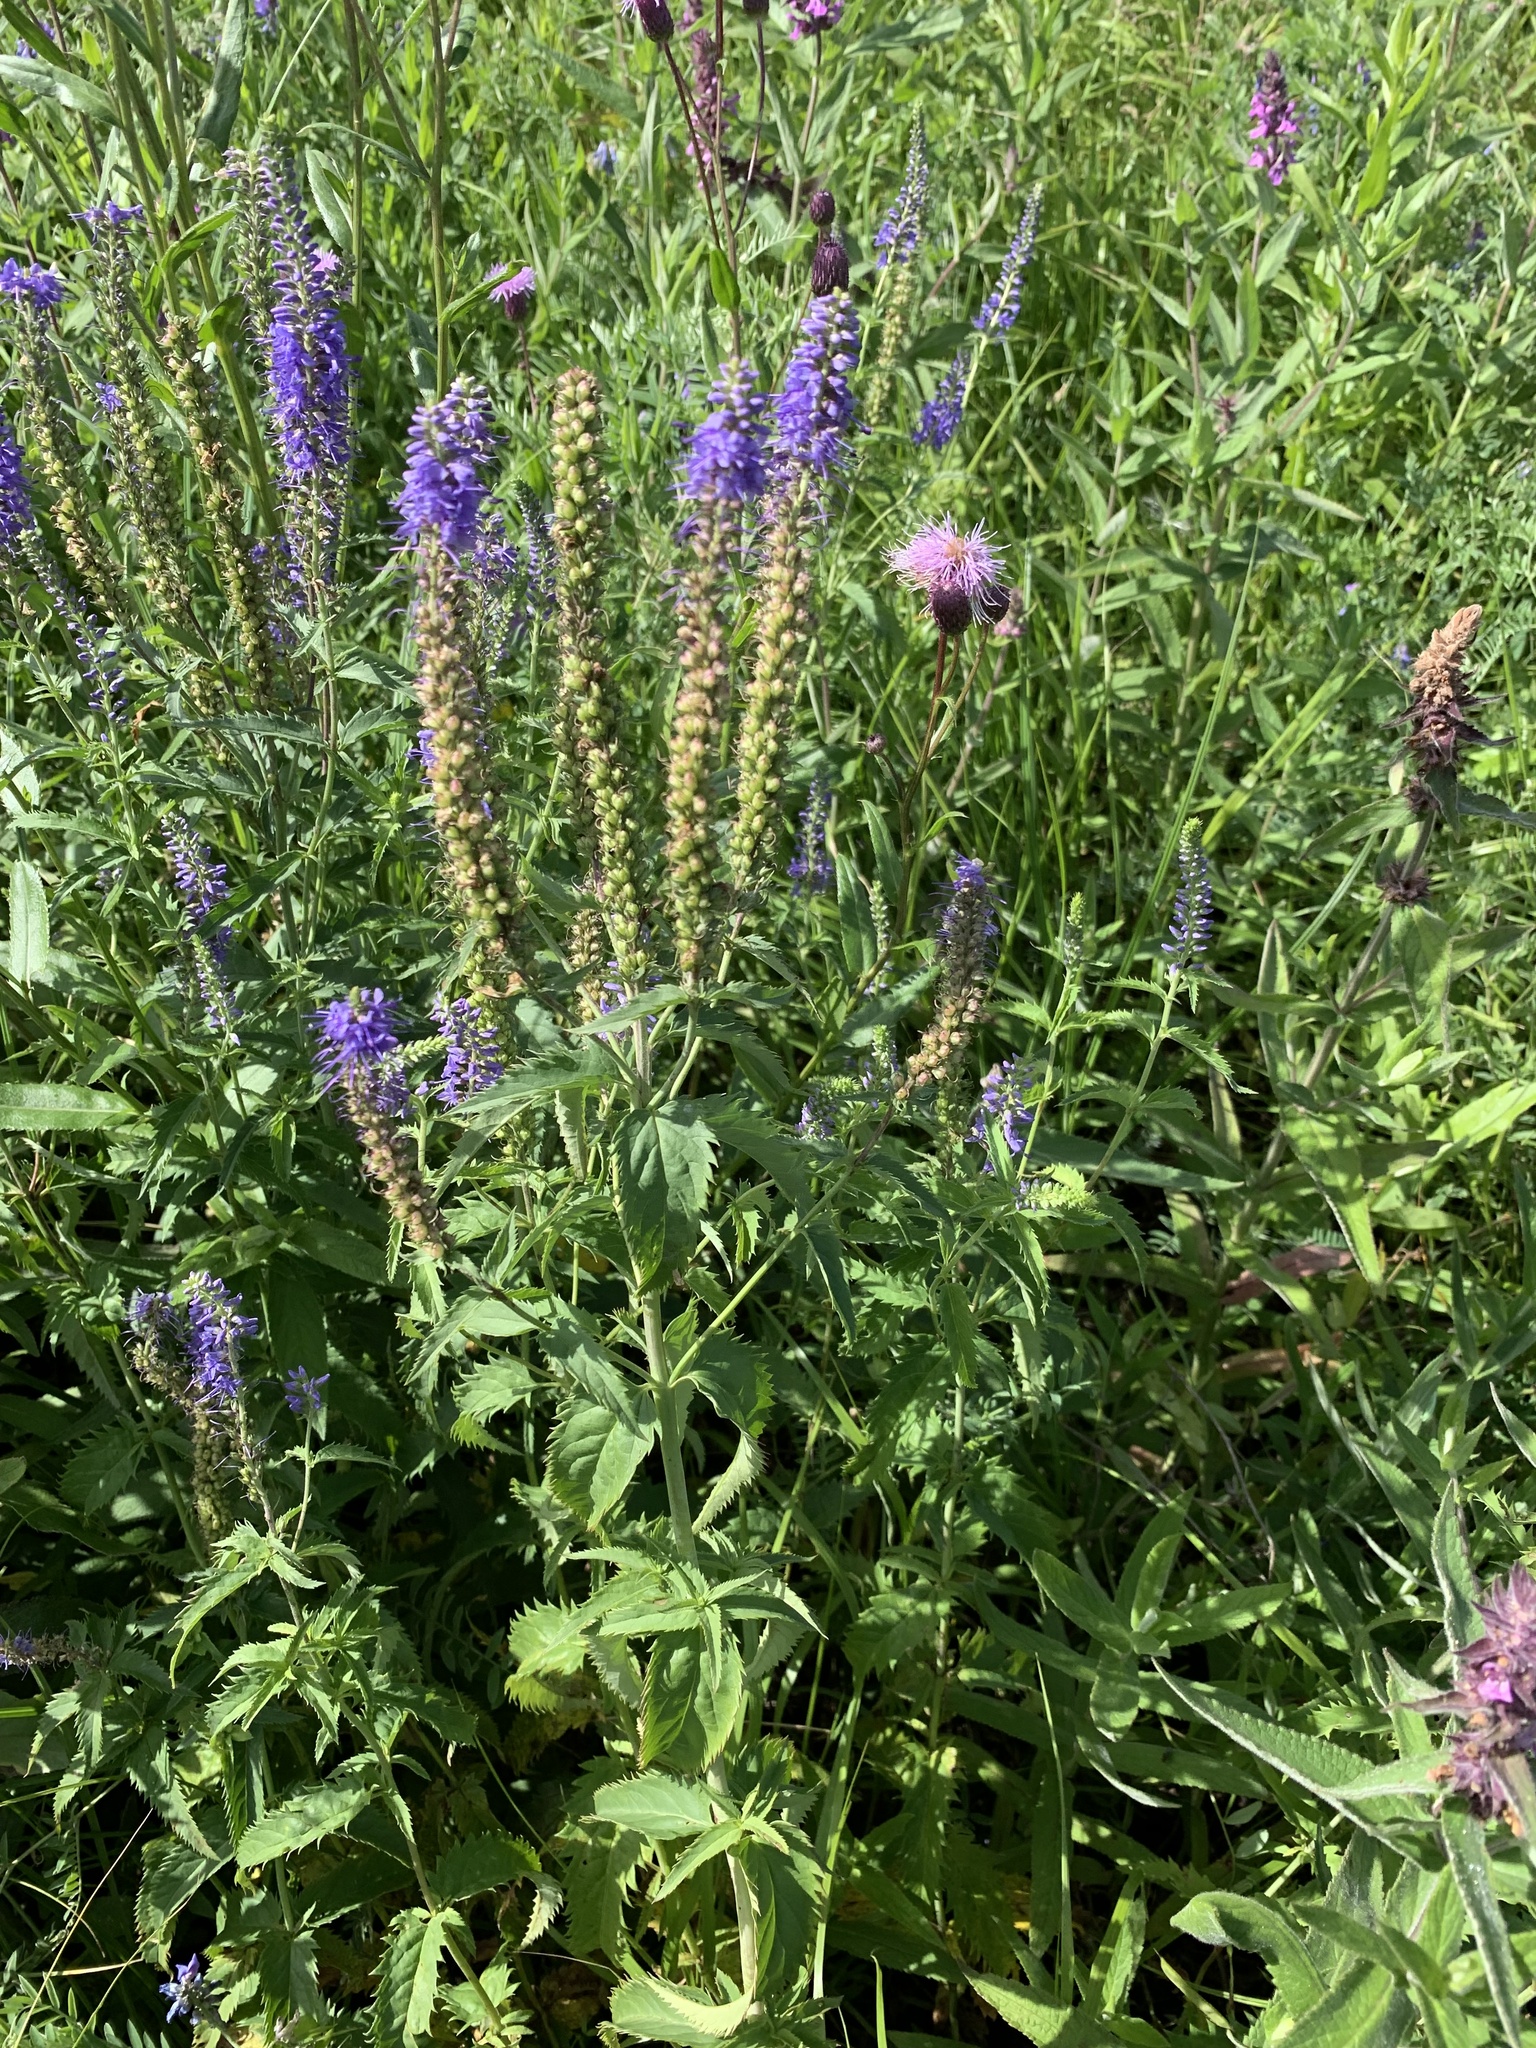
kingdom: Plantae
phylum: Tracheophyta
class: Magnoliopsida
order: Lamiales
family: Plantaginaceae
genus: Veronica
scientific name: Veronica longifolia
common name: Garden speedwell
